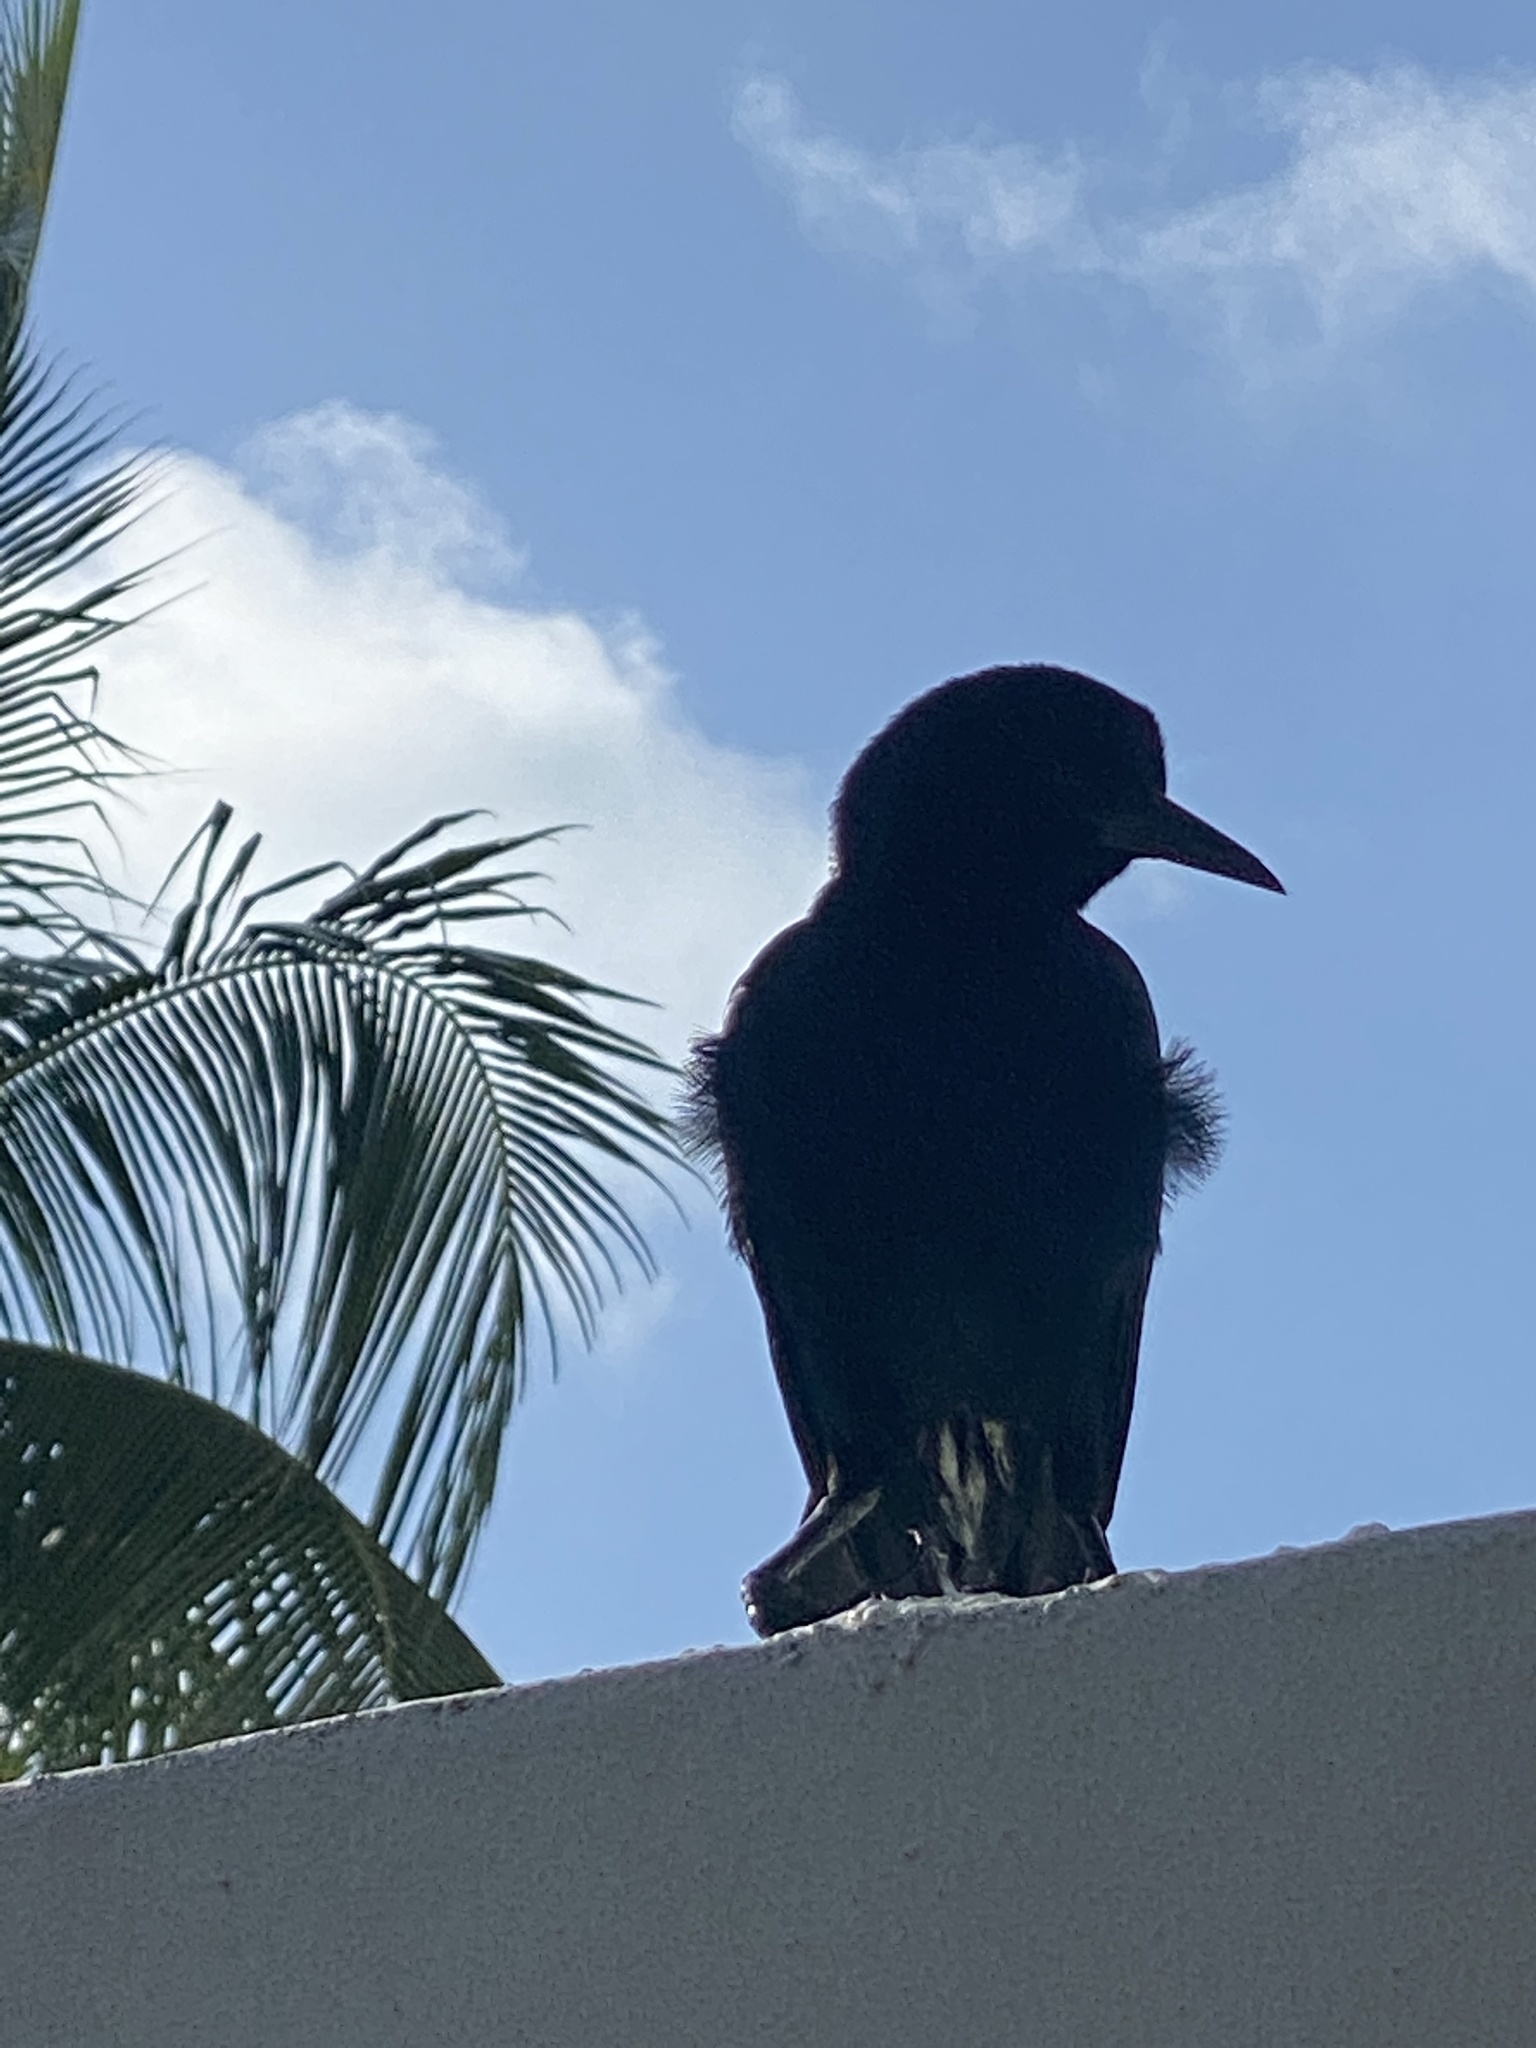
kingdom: Animalia
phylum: Chordata
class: Aves
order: Passeriformes
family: Icteridae
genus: Quiscalus
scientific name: Quiscalus major
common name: Boat-tailed grackle
